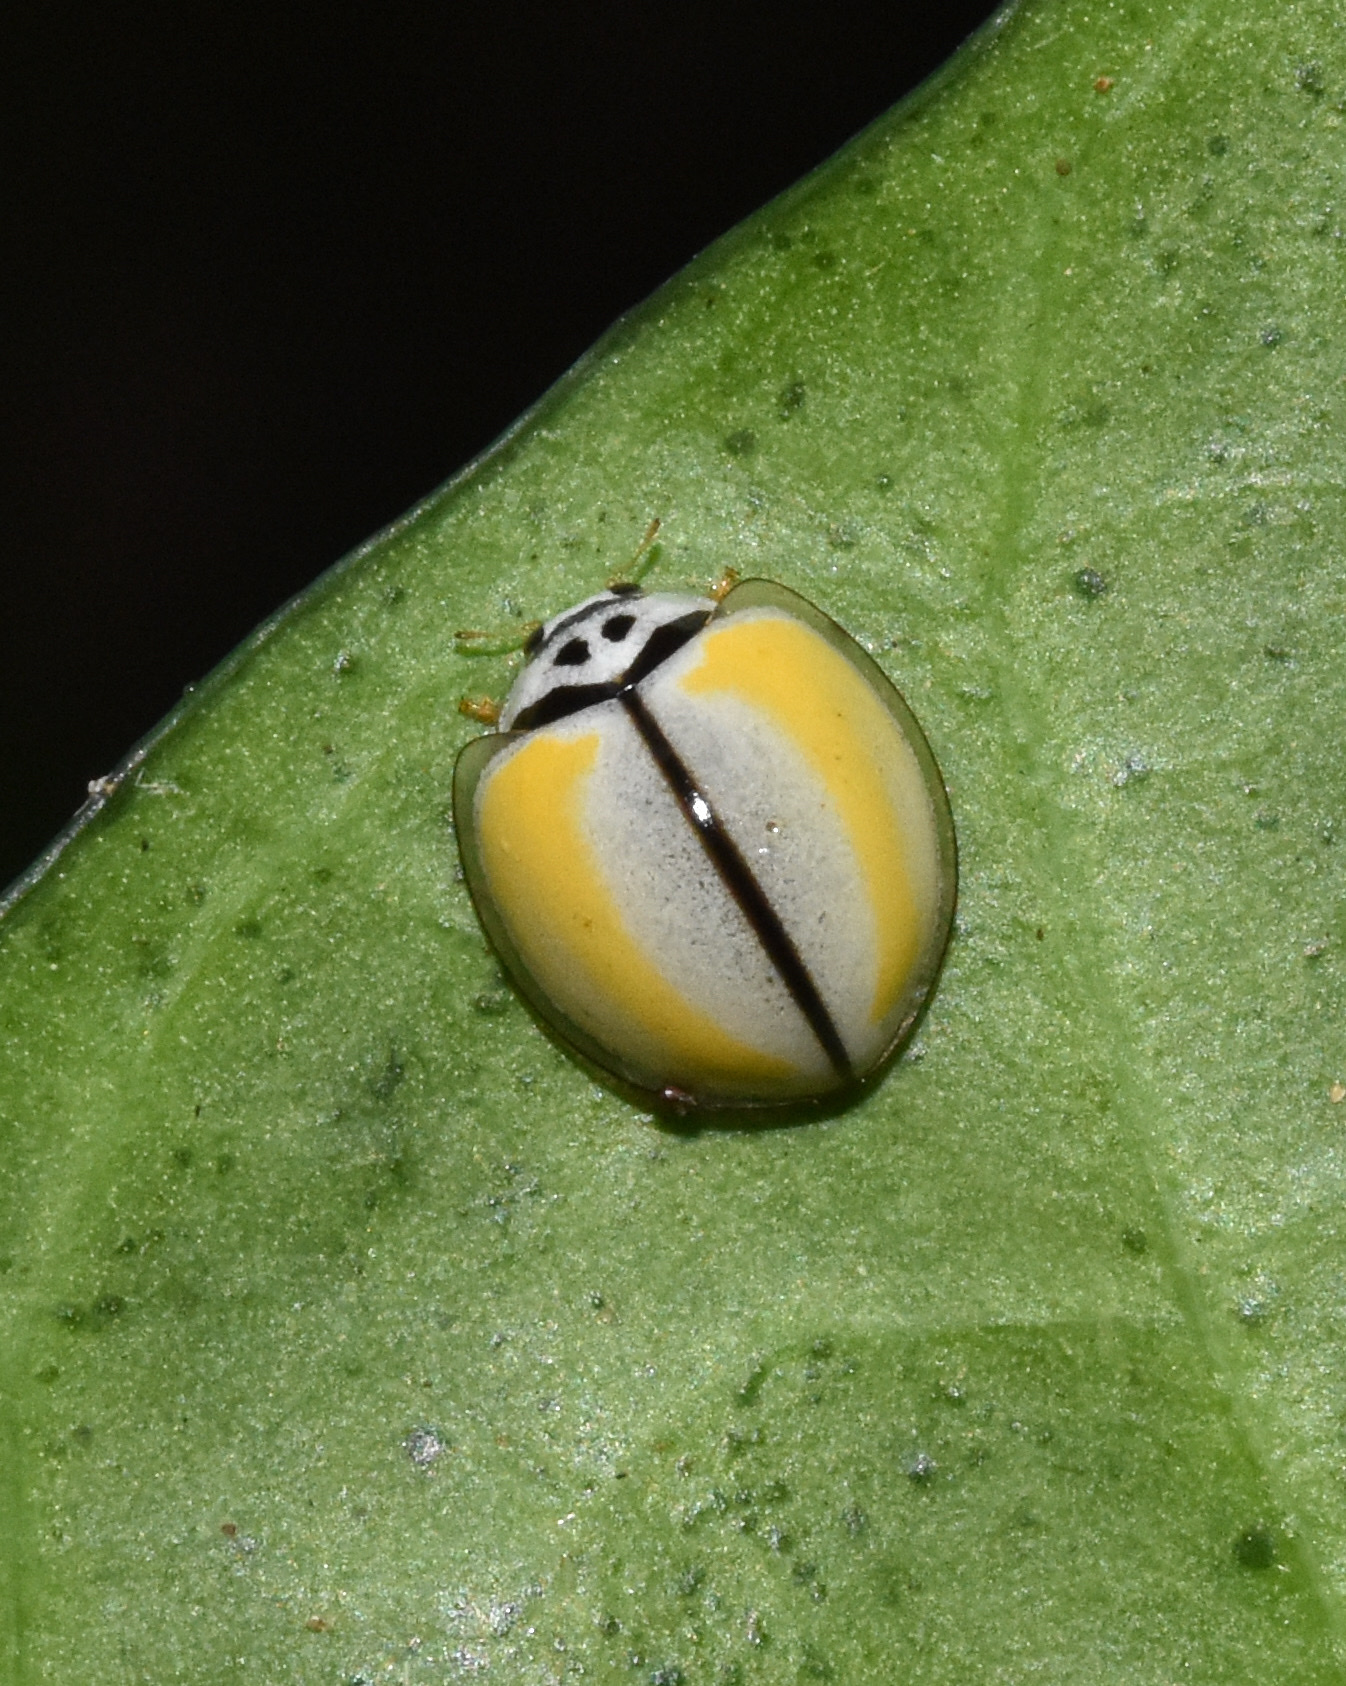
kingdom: Animalia
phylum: Arthropoda
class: Insecta
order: Coleoptera
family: Coccinellidae
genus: Oenopia
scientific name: Oenopia
